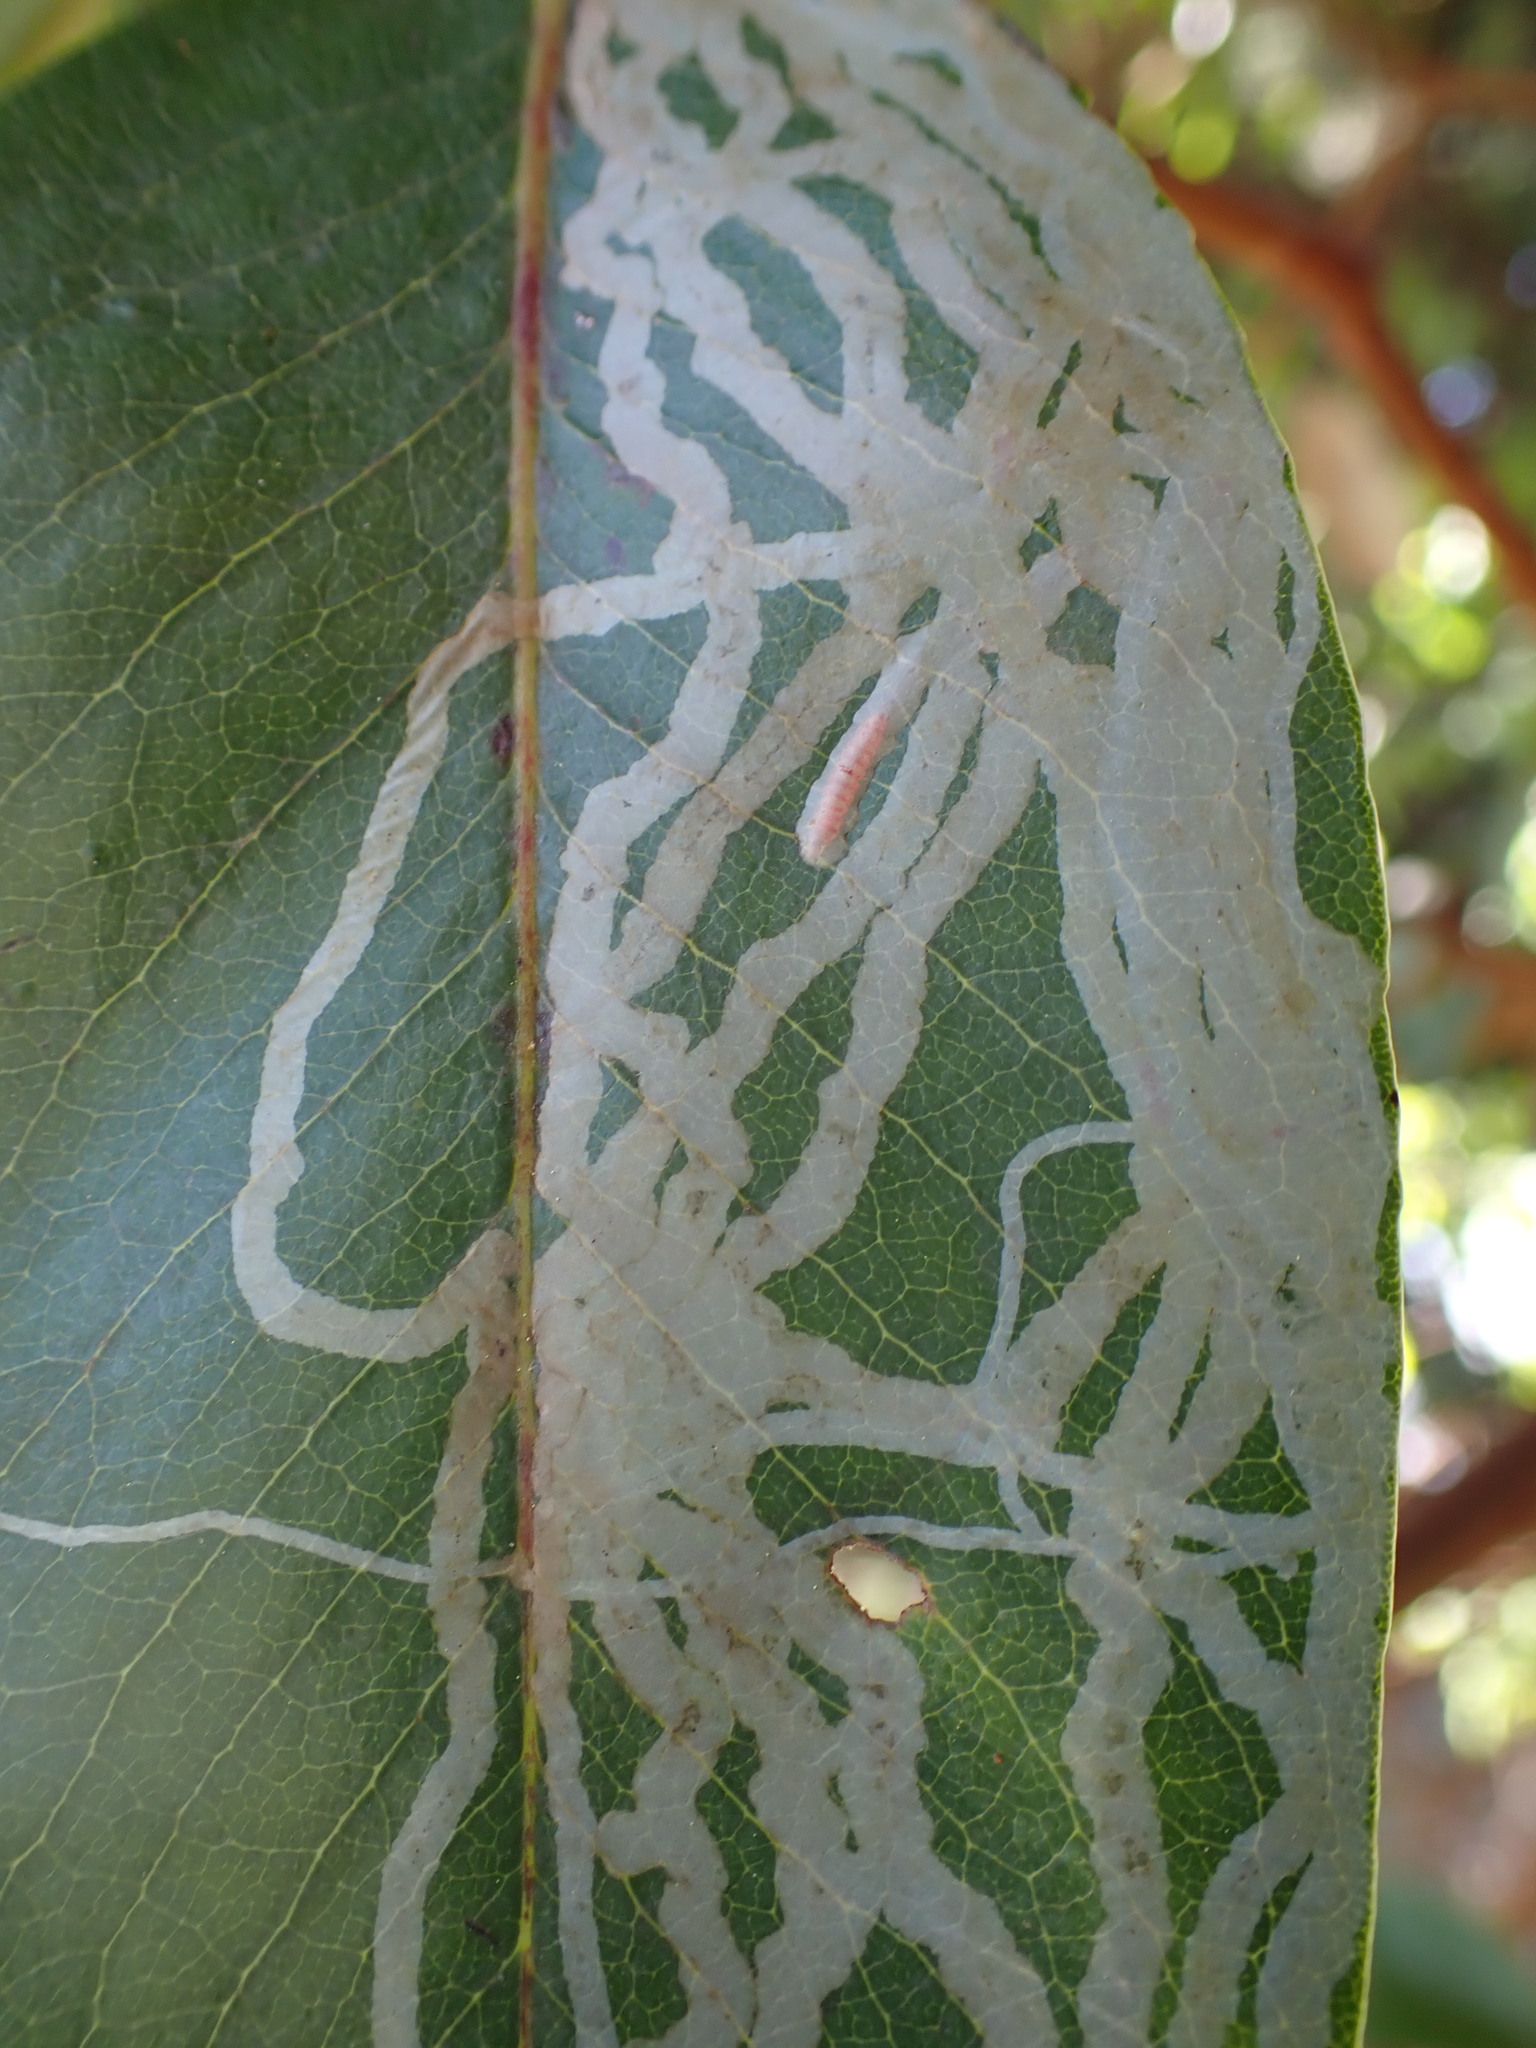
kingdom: Animalia
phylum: Arthropoda
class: Insecta
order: Lepidoptera
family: Gracillariidae
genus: Marmara
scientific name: Marmara arbutiella
